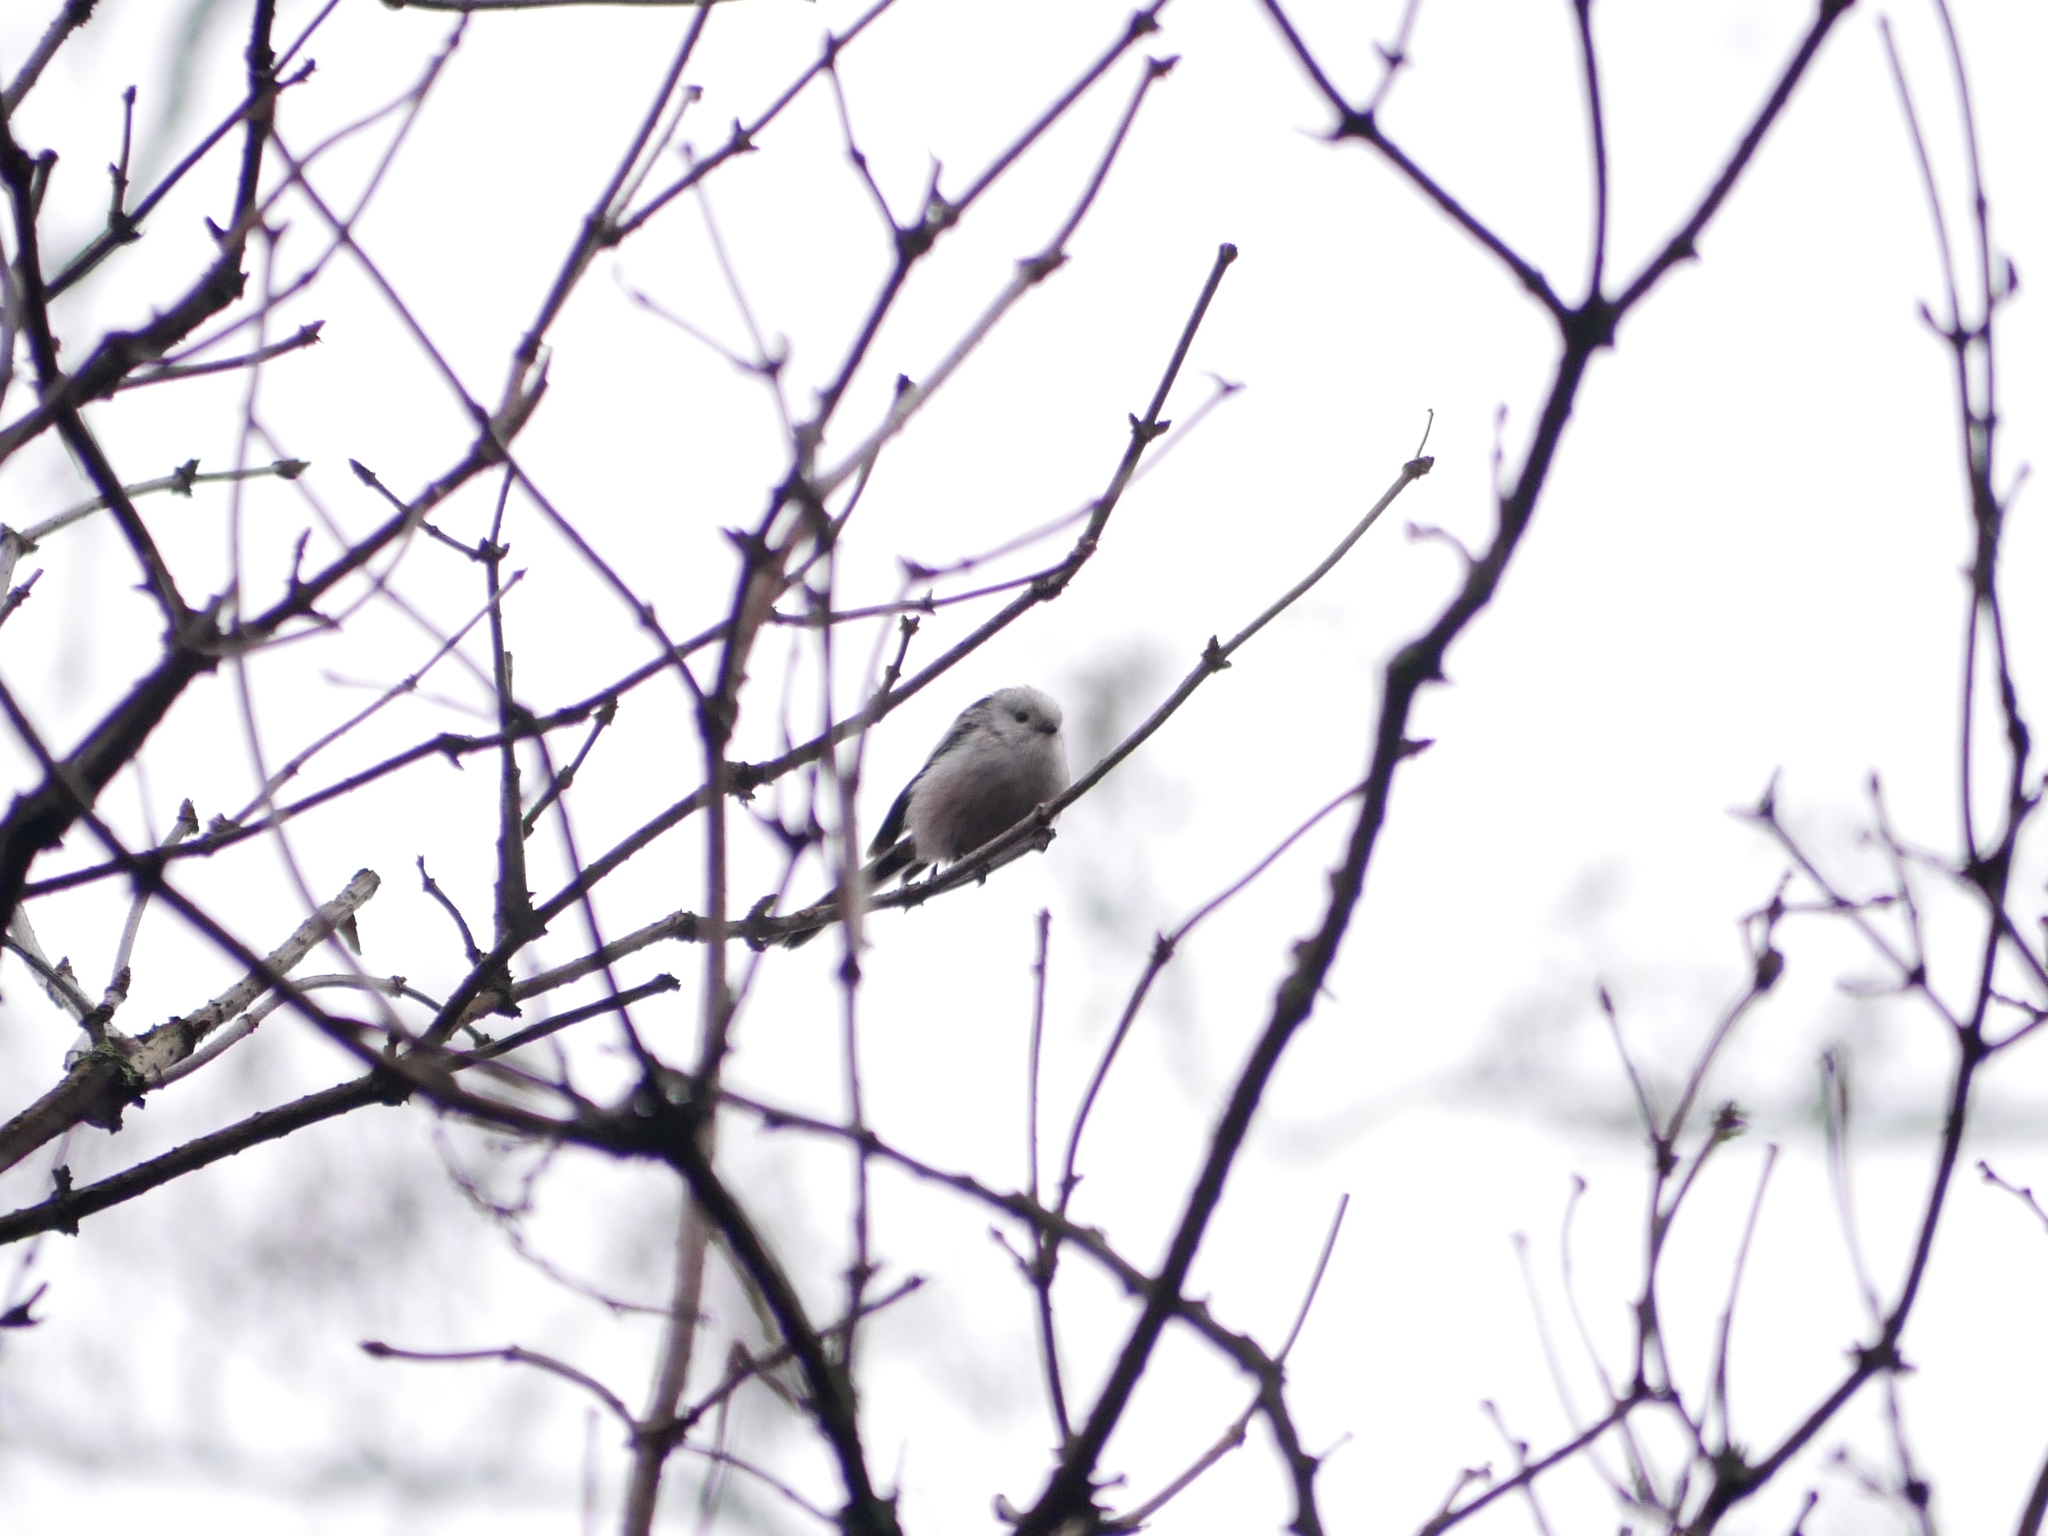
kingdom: Animalia
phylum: Chordata
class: Aves
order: Passeriformes
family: Aegithalidae
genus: Aegithalos
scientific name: Aegithalos caudatus
